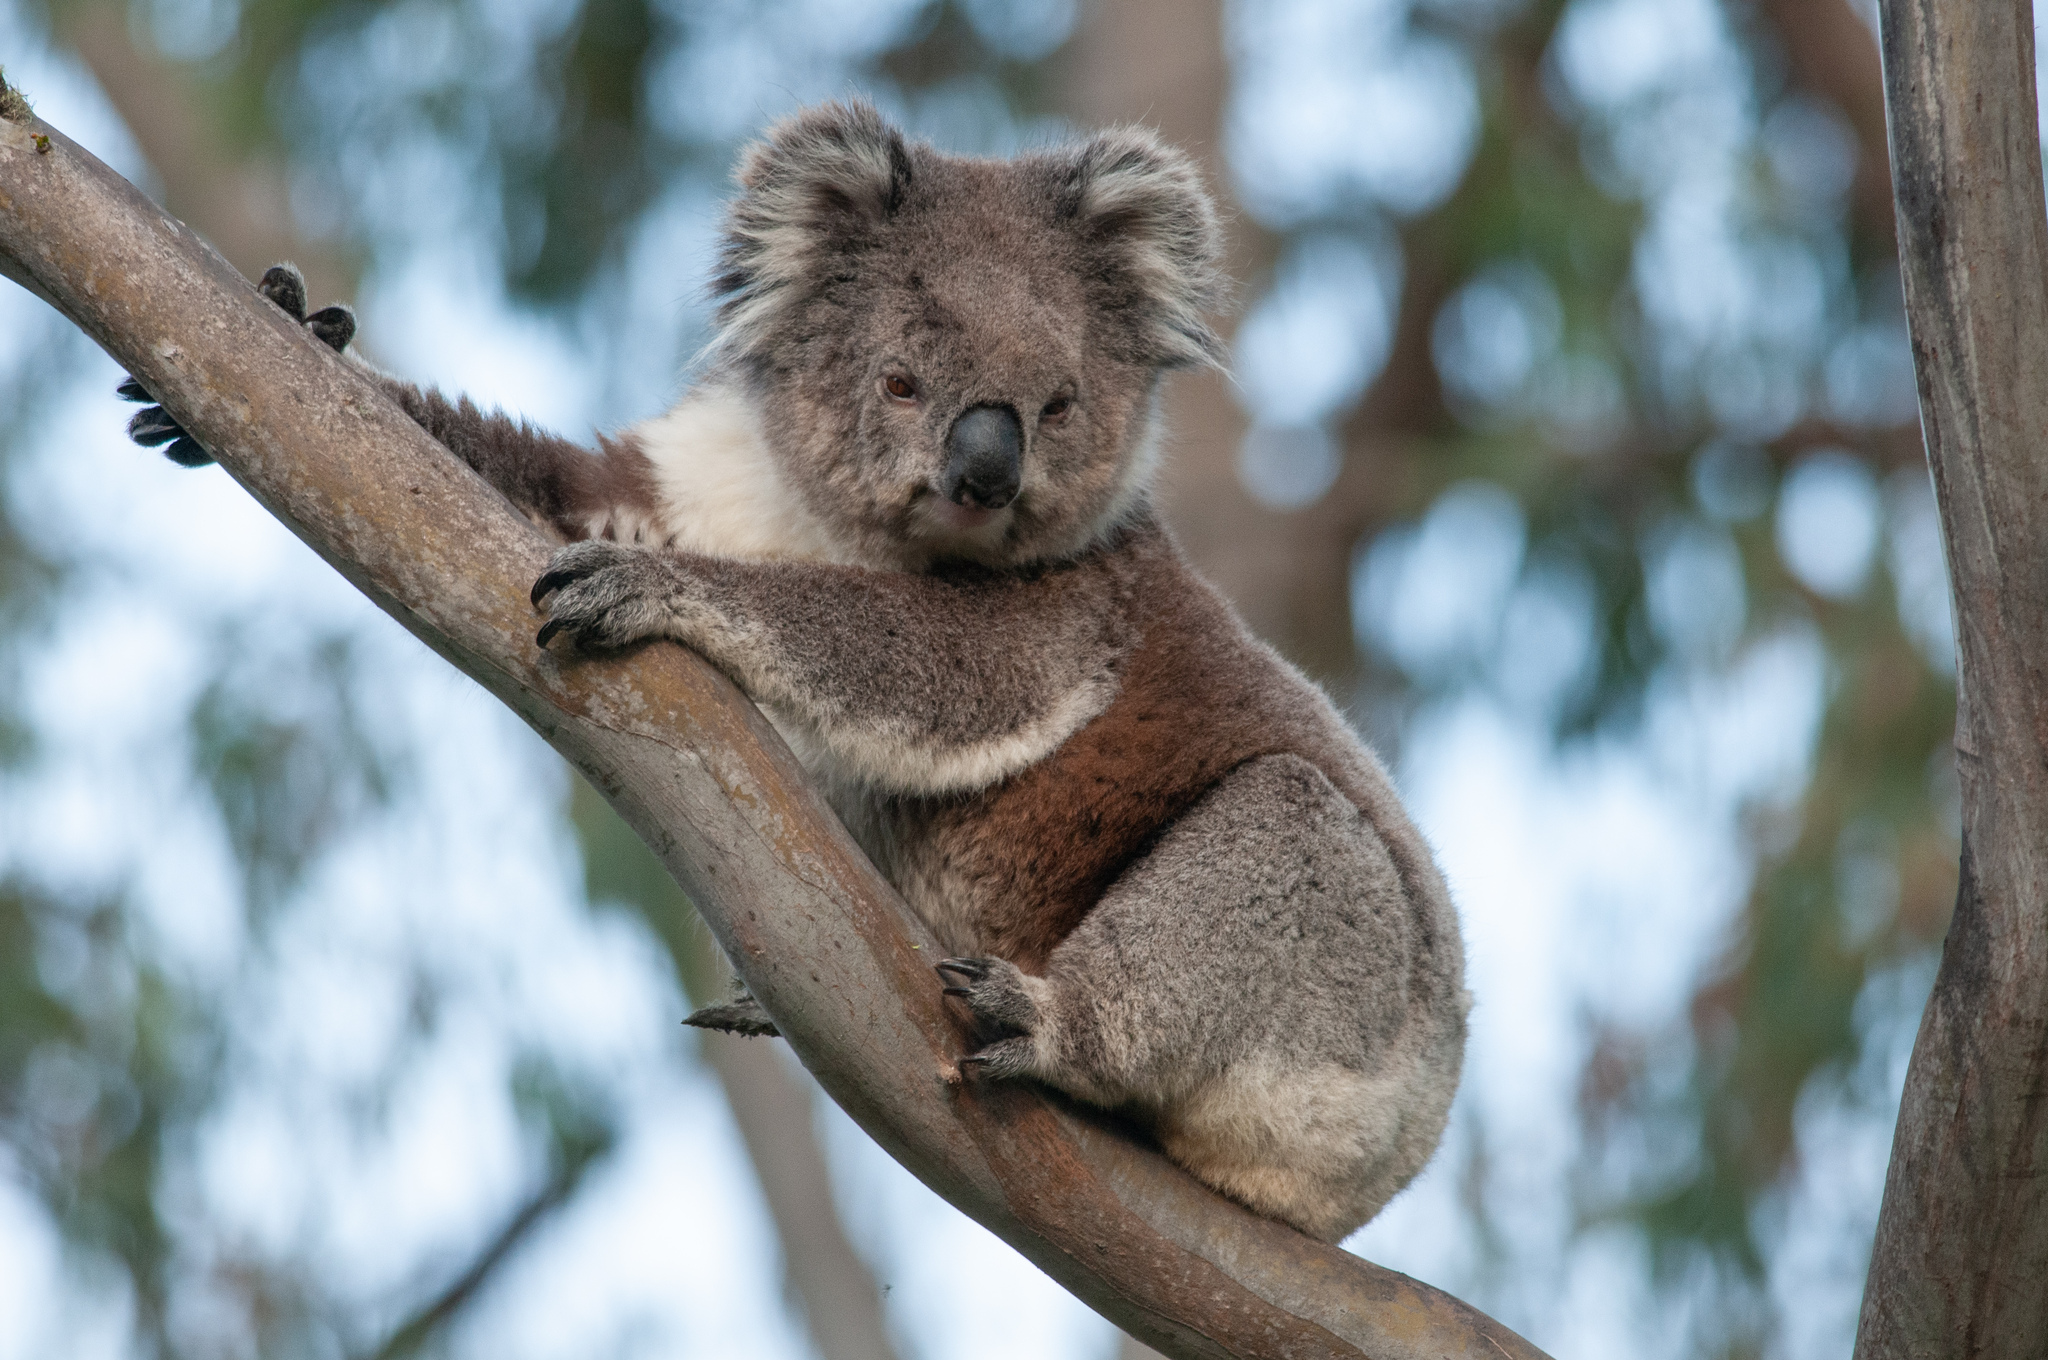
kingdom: Animalia
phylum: Chordata
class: Mammalia
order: Diprotodontia
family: Phascolarctidae
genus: Phascolarctos
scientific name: Phascolarctos cinereus
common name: Koala
